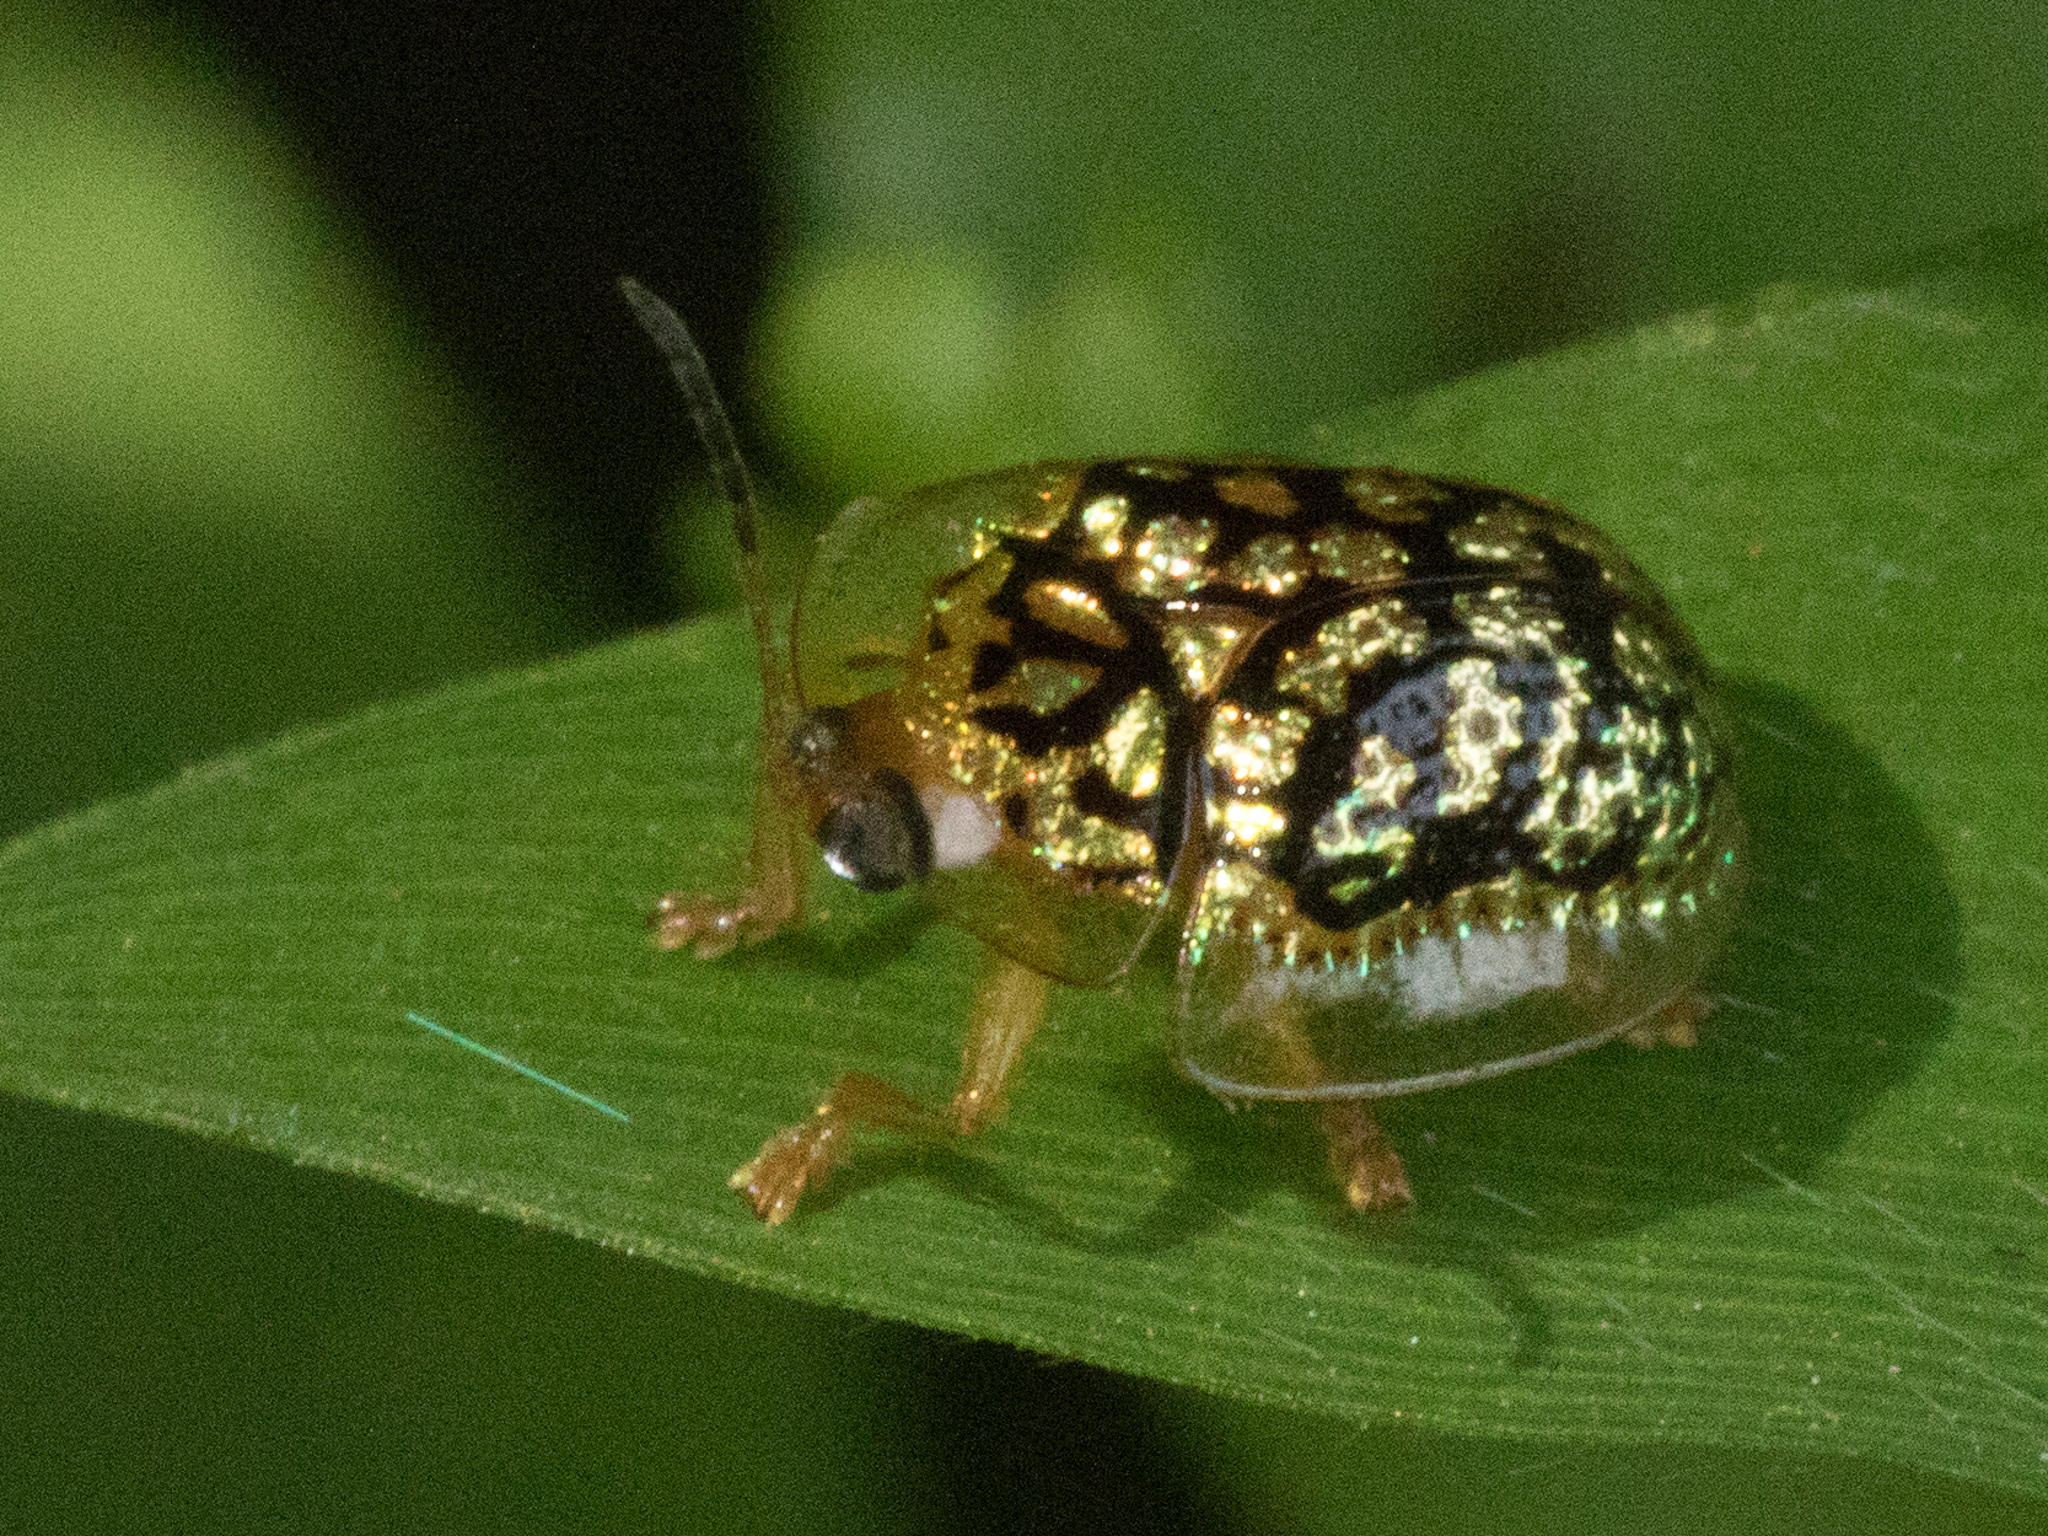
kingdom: Animalia
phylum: Arthropoda
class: Insecta
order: Coleoptera
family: Chrysomelidae
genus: Cteisella
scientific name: Cteisella confusa
